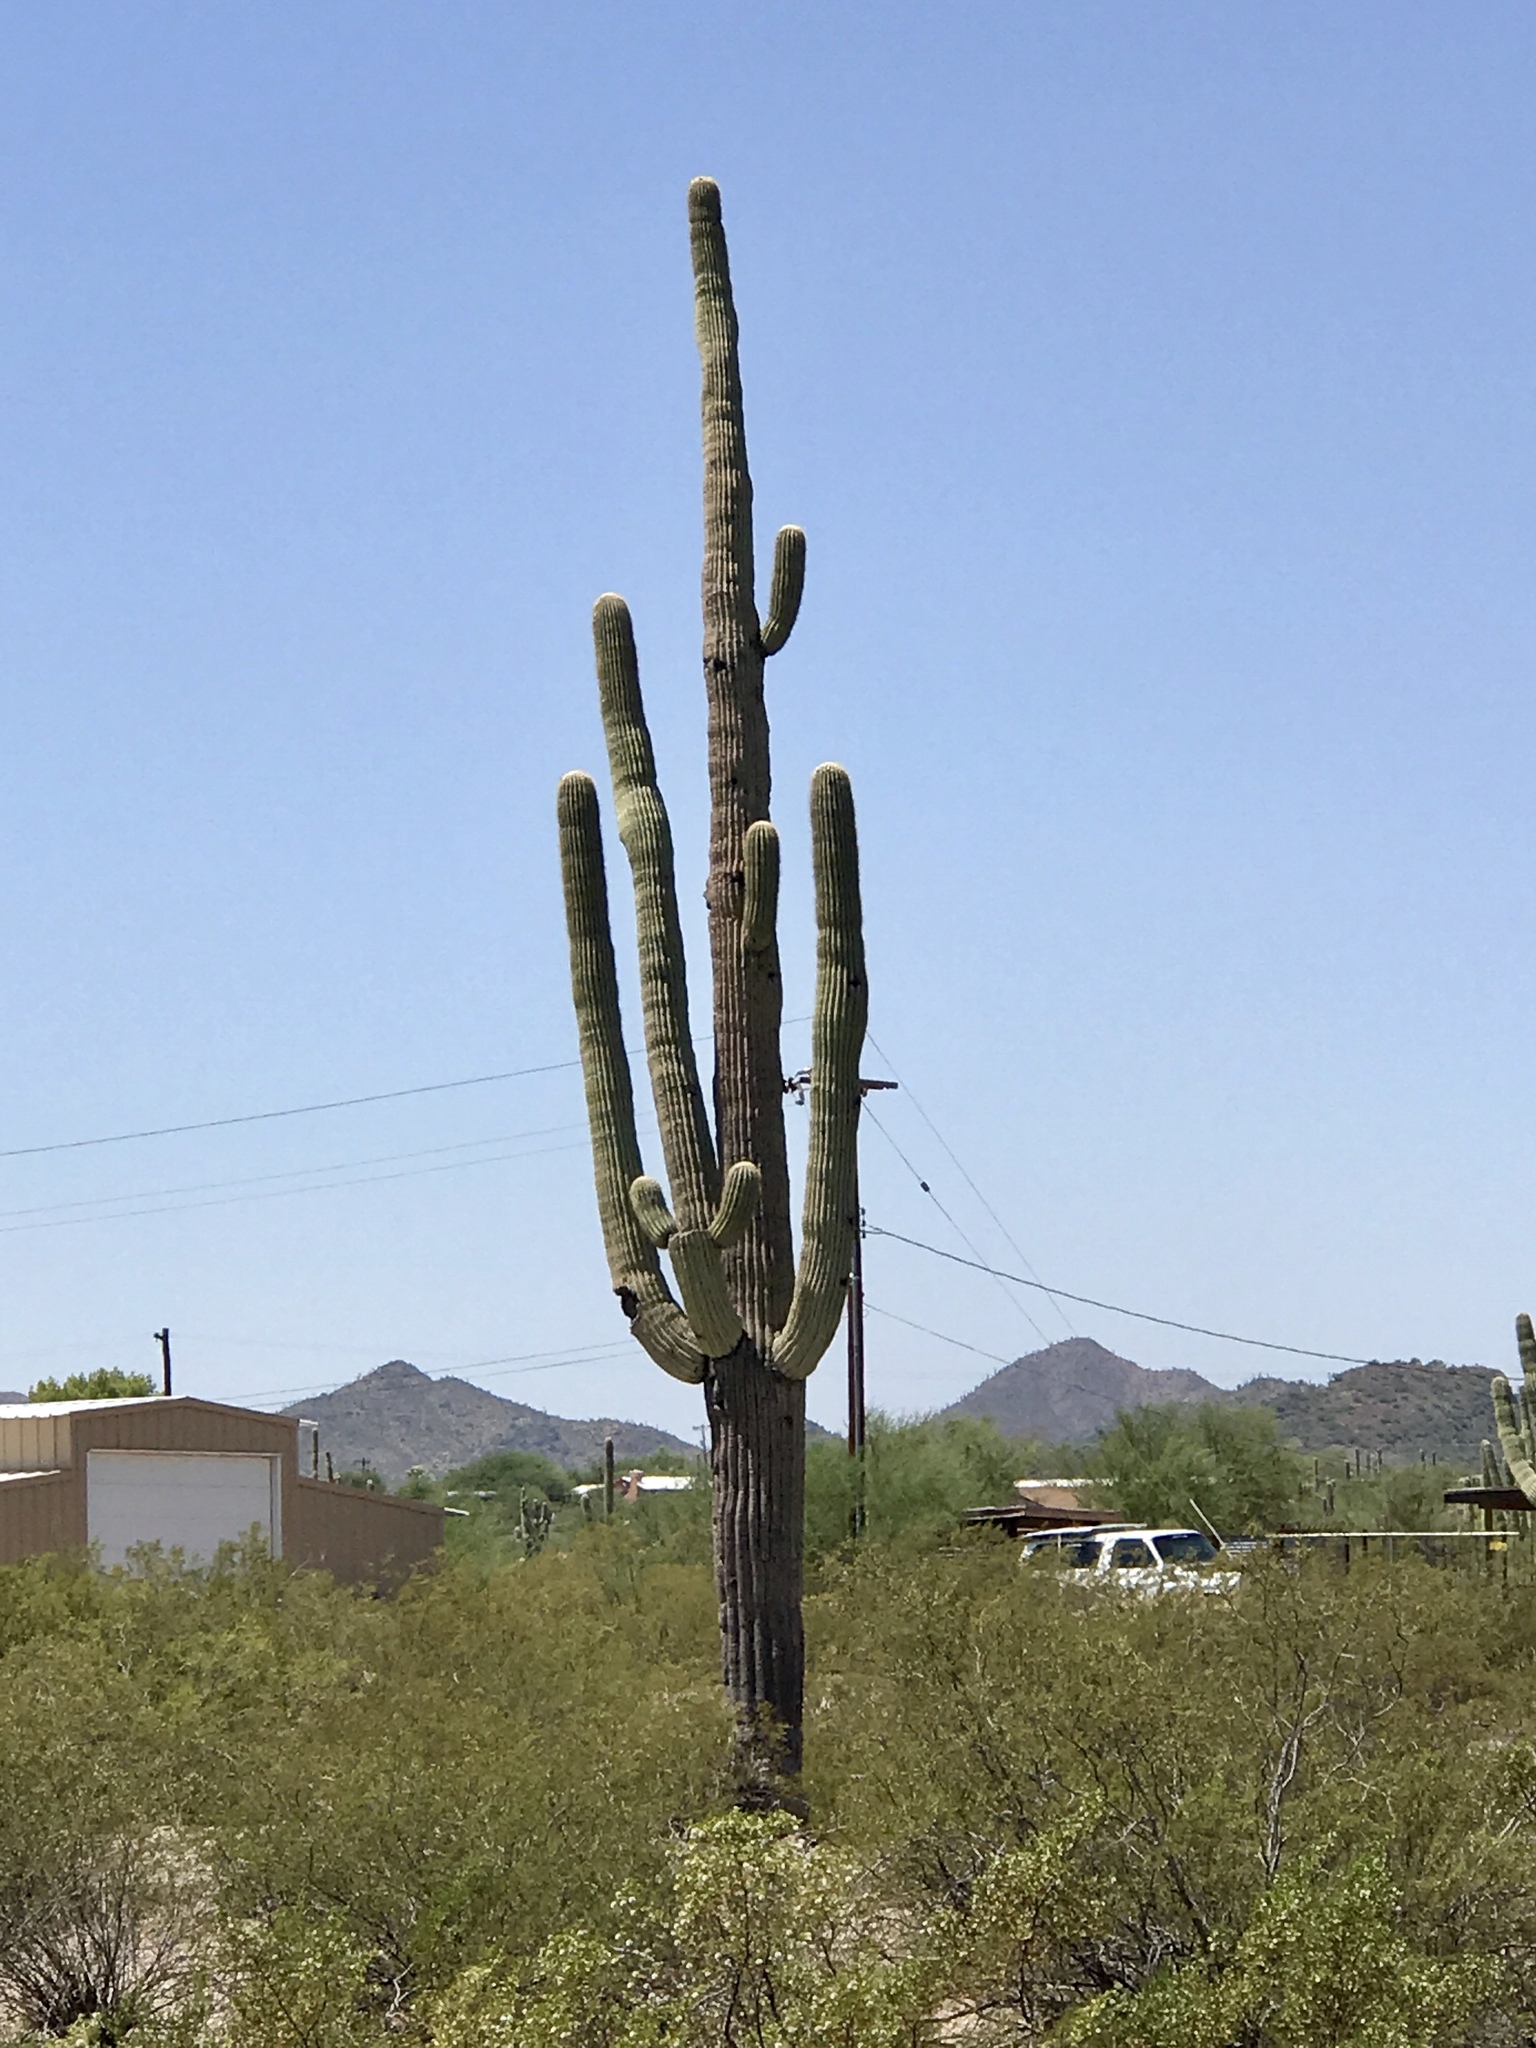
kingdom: Plantae
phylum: Tracheophyta
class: Magnoliopsida
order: Caryophyllales
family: Cactaceae
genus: Carnegiea
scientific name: Carnegiea gigantea
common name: Saguaro
